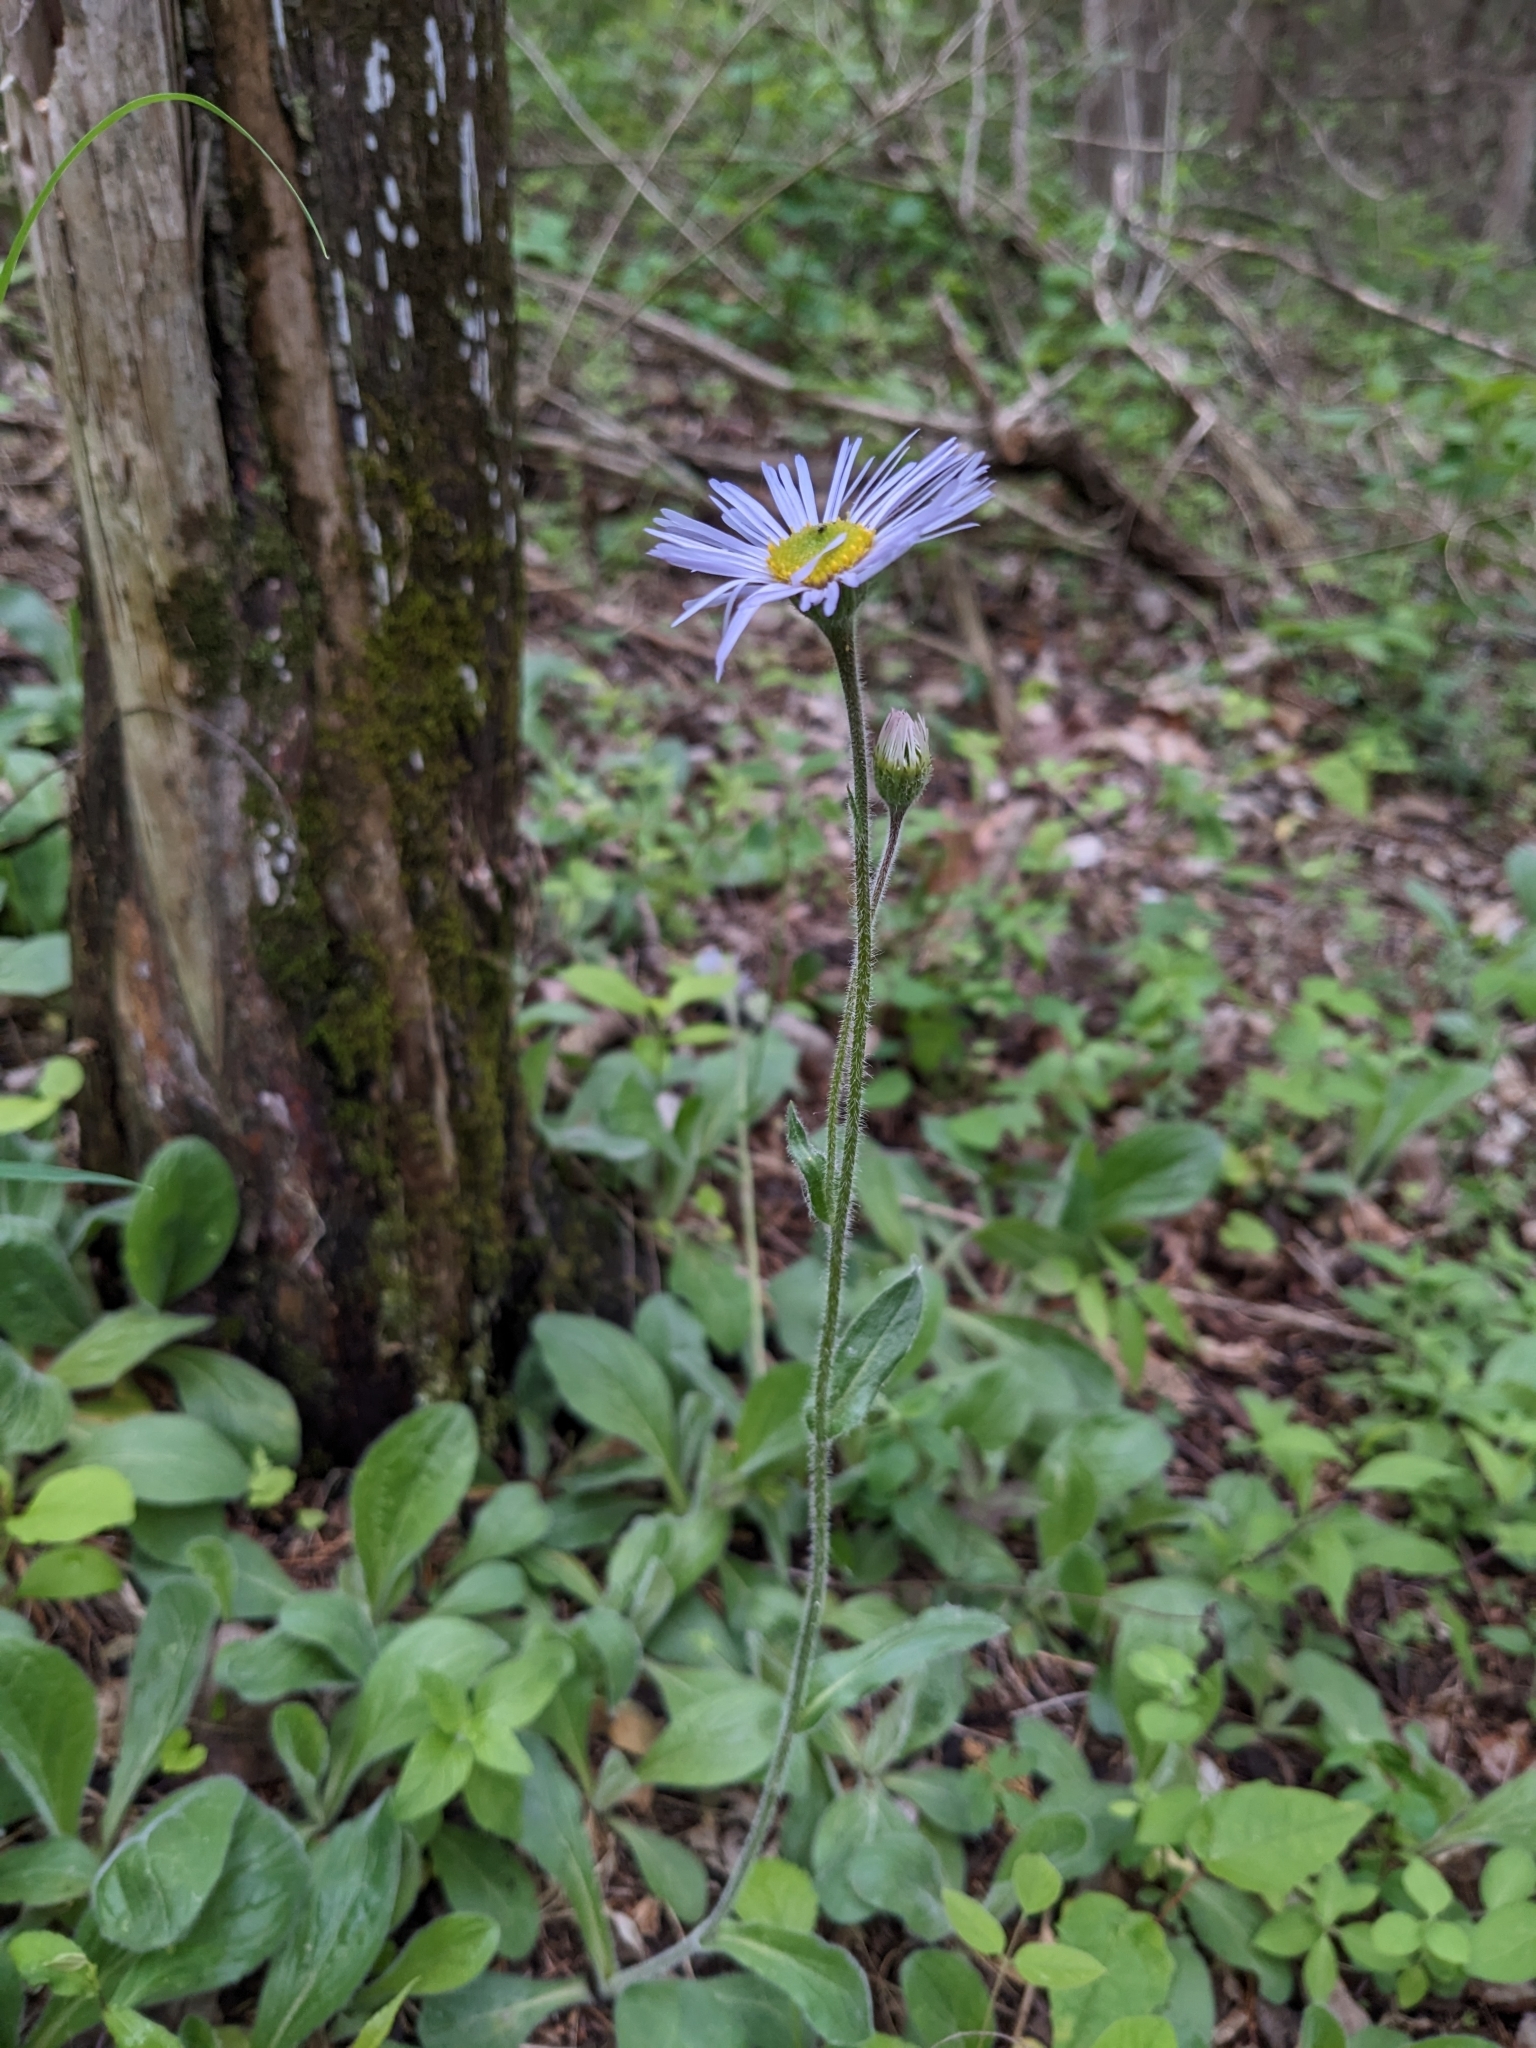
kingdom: Plantae
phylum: Tracheophyta
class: Magnoliopsida
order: Asterales
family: Asteraceae
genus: Erigeron
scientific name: Erigeron pulchellus
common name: Hairy fleabane
